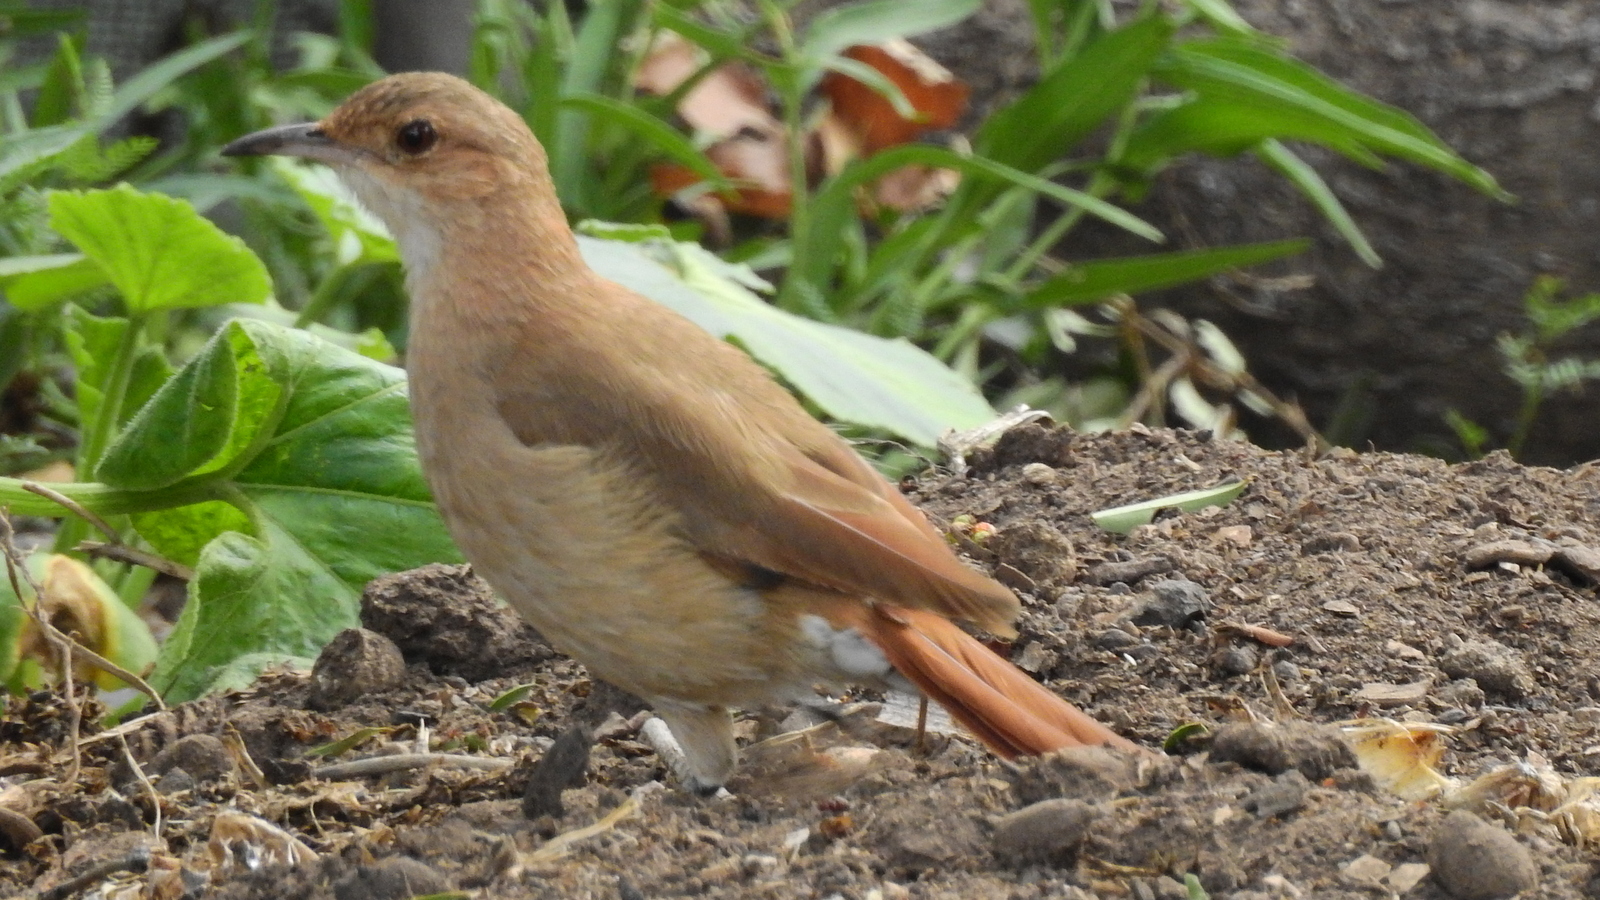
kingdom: Animalia
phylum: Chordata
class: Aves
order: Passeriformes
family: Furnariidae
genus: Furnarius
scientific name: Furnarius rufus
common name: Rufous hornero
